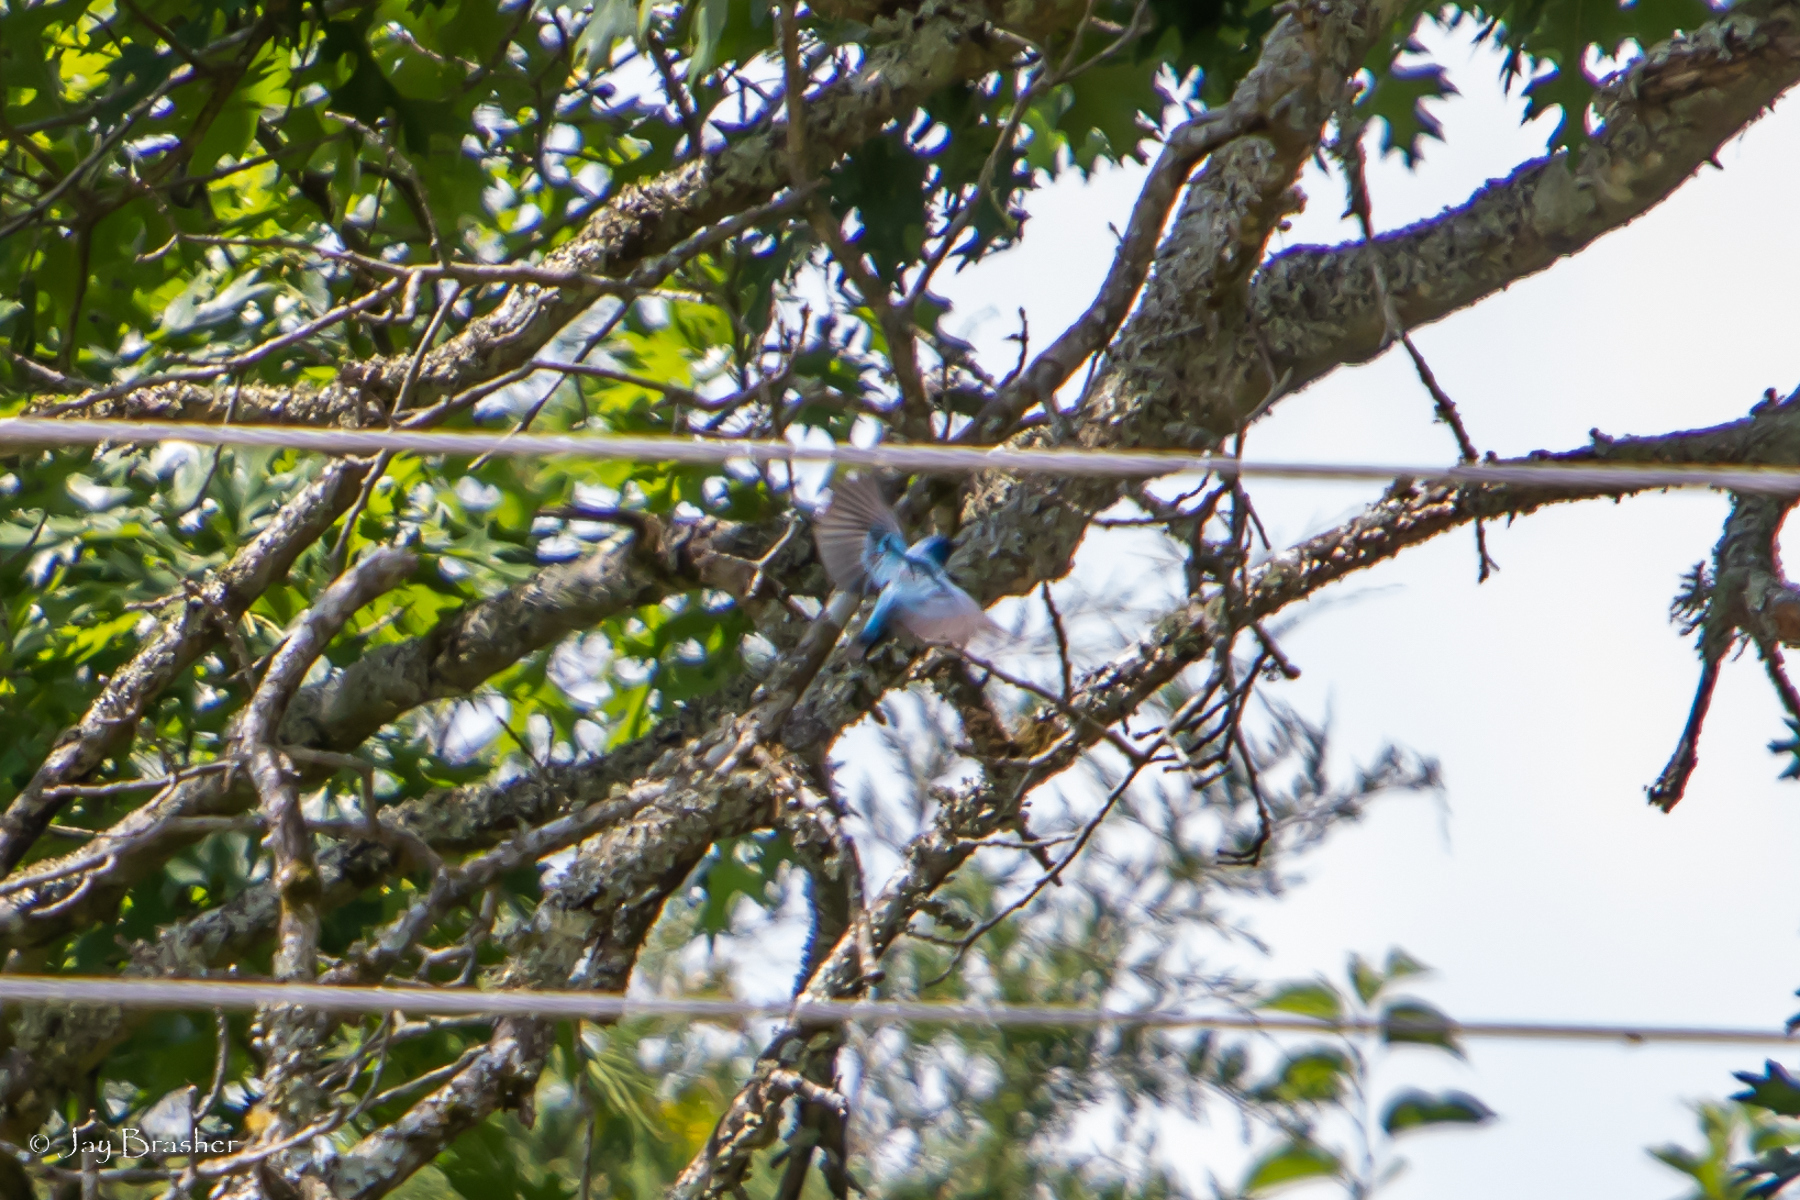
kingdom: Animalia
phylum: Chordata
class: Aves
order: Passeriformes
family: Cardinalidae
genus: Passerina
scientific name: Passerina cyanea
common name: Indigo bunting
